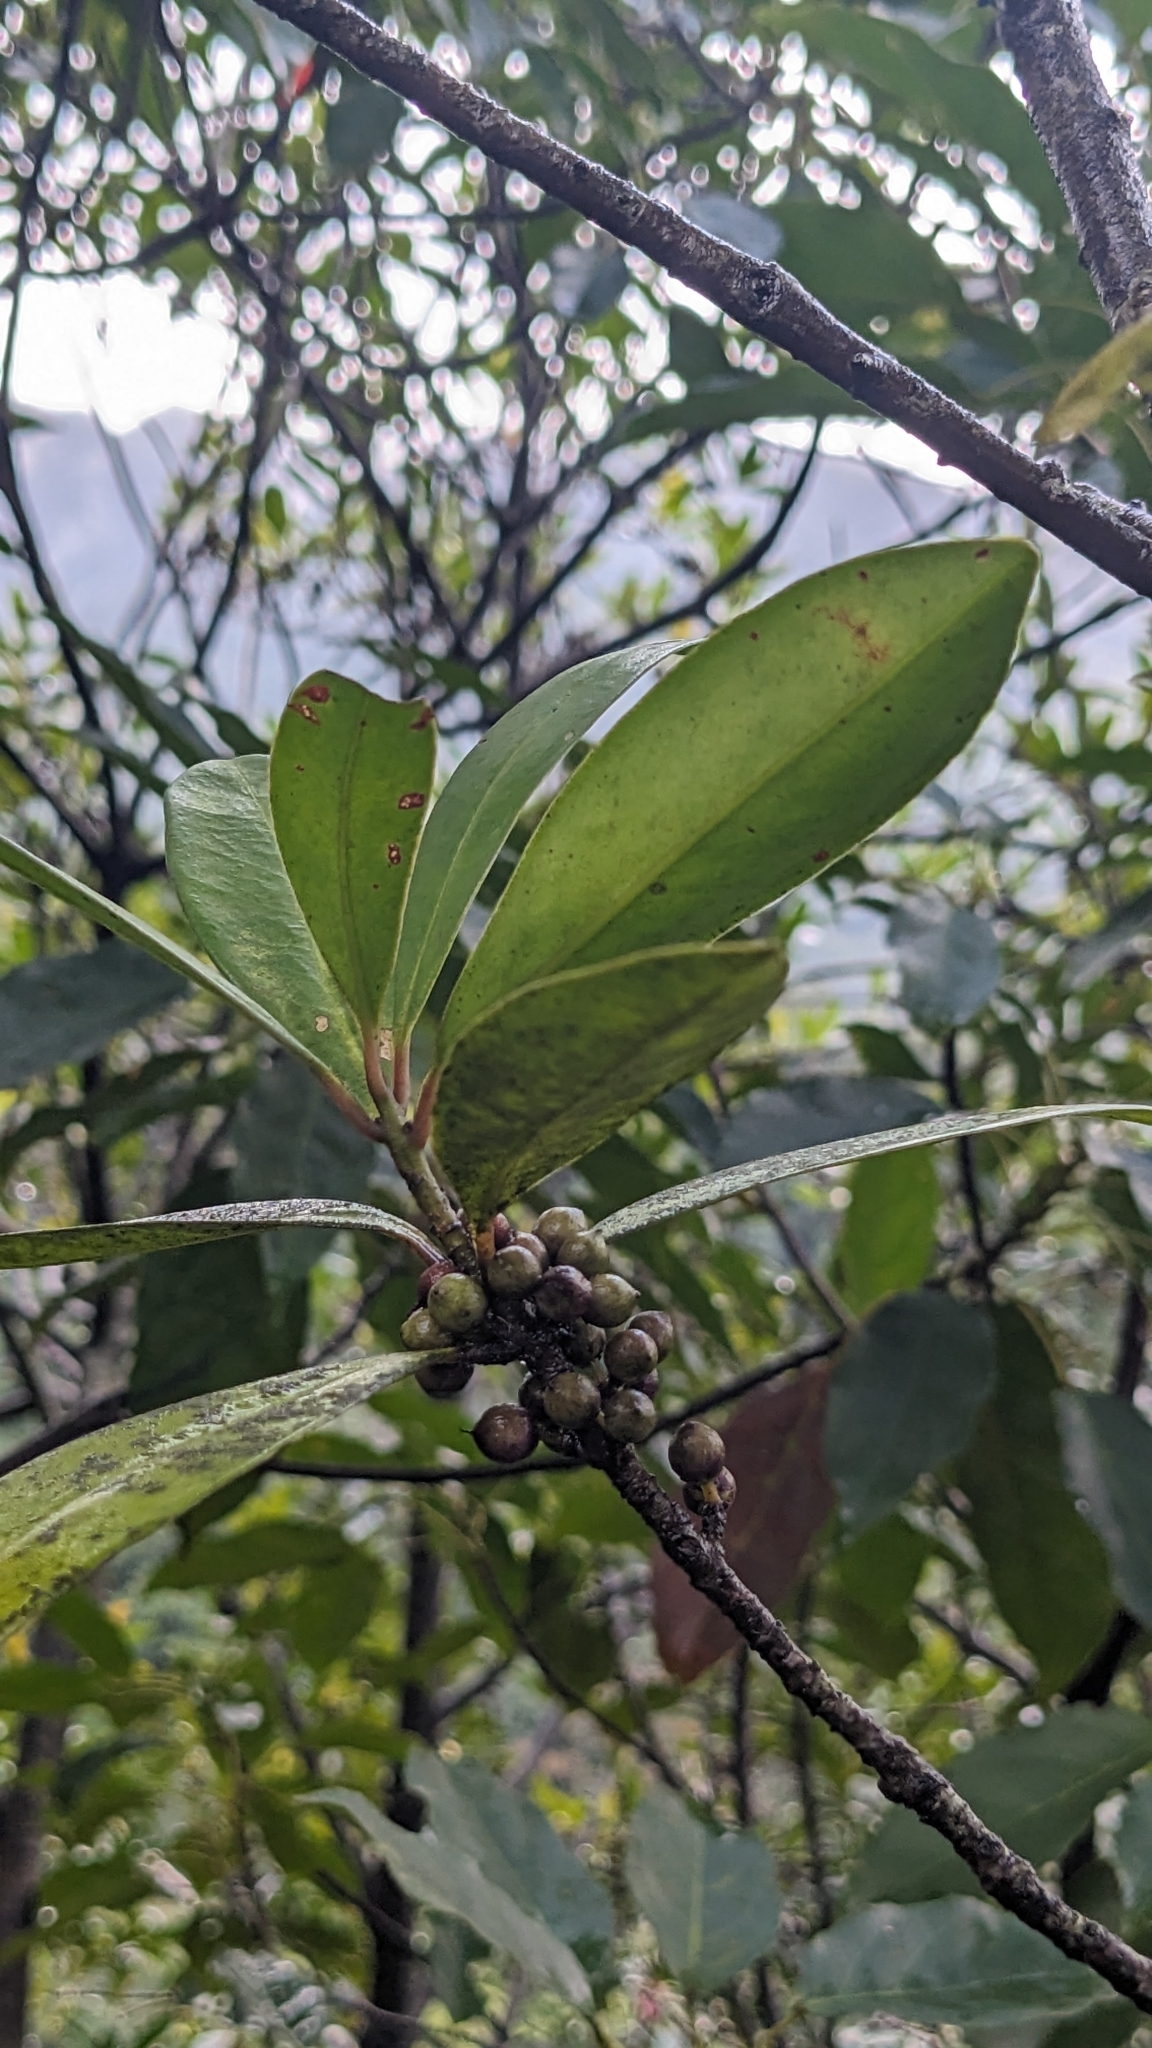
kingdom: Plantae
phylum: Tracheophyta
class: Magnoliopsida
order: Ericales
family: Primulaceae
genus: Myrsine
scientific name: Myrsine seguinii
